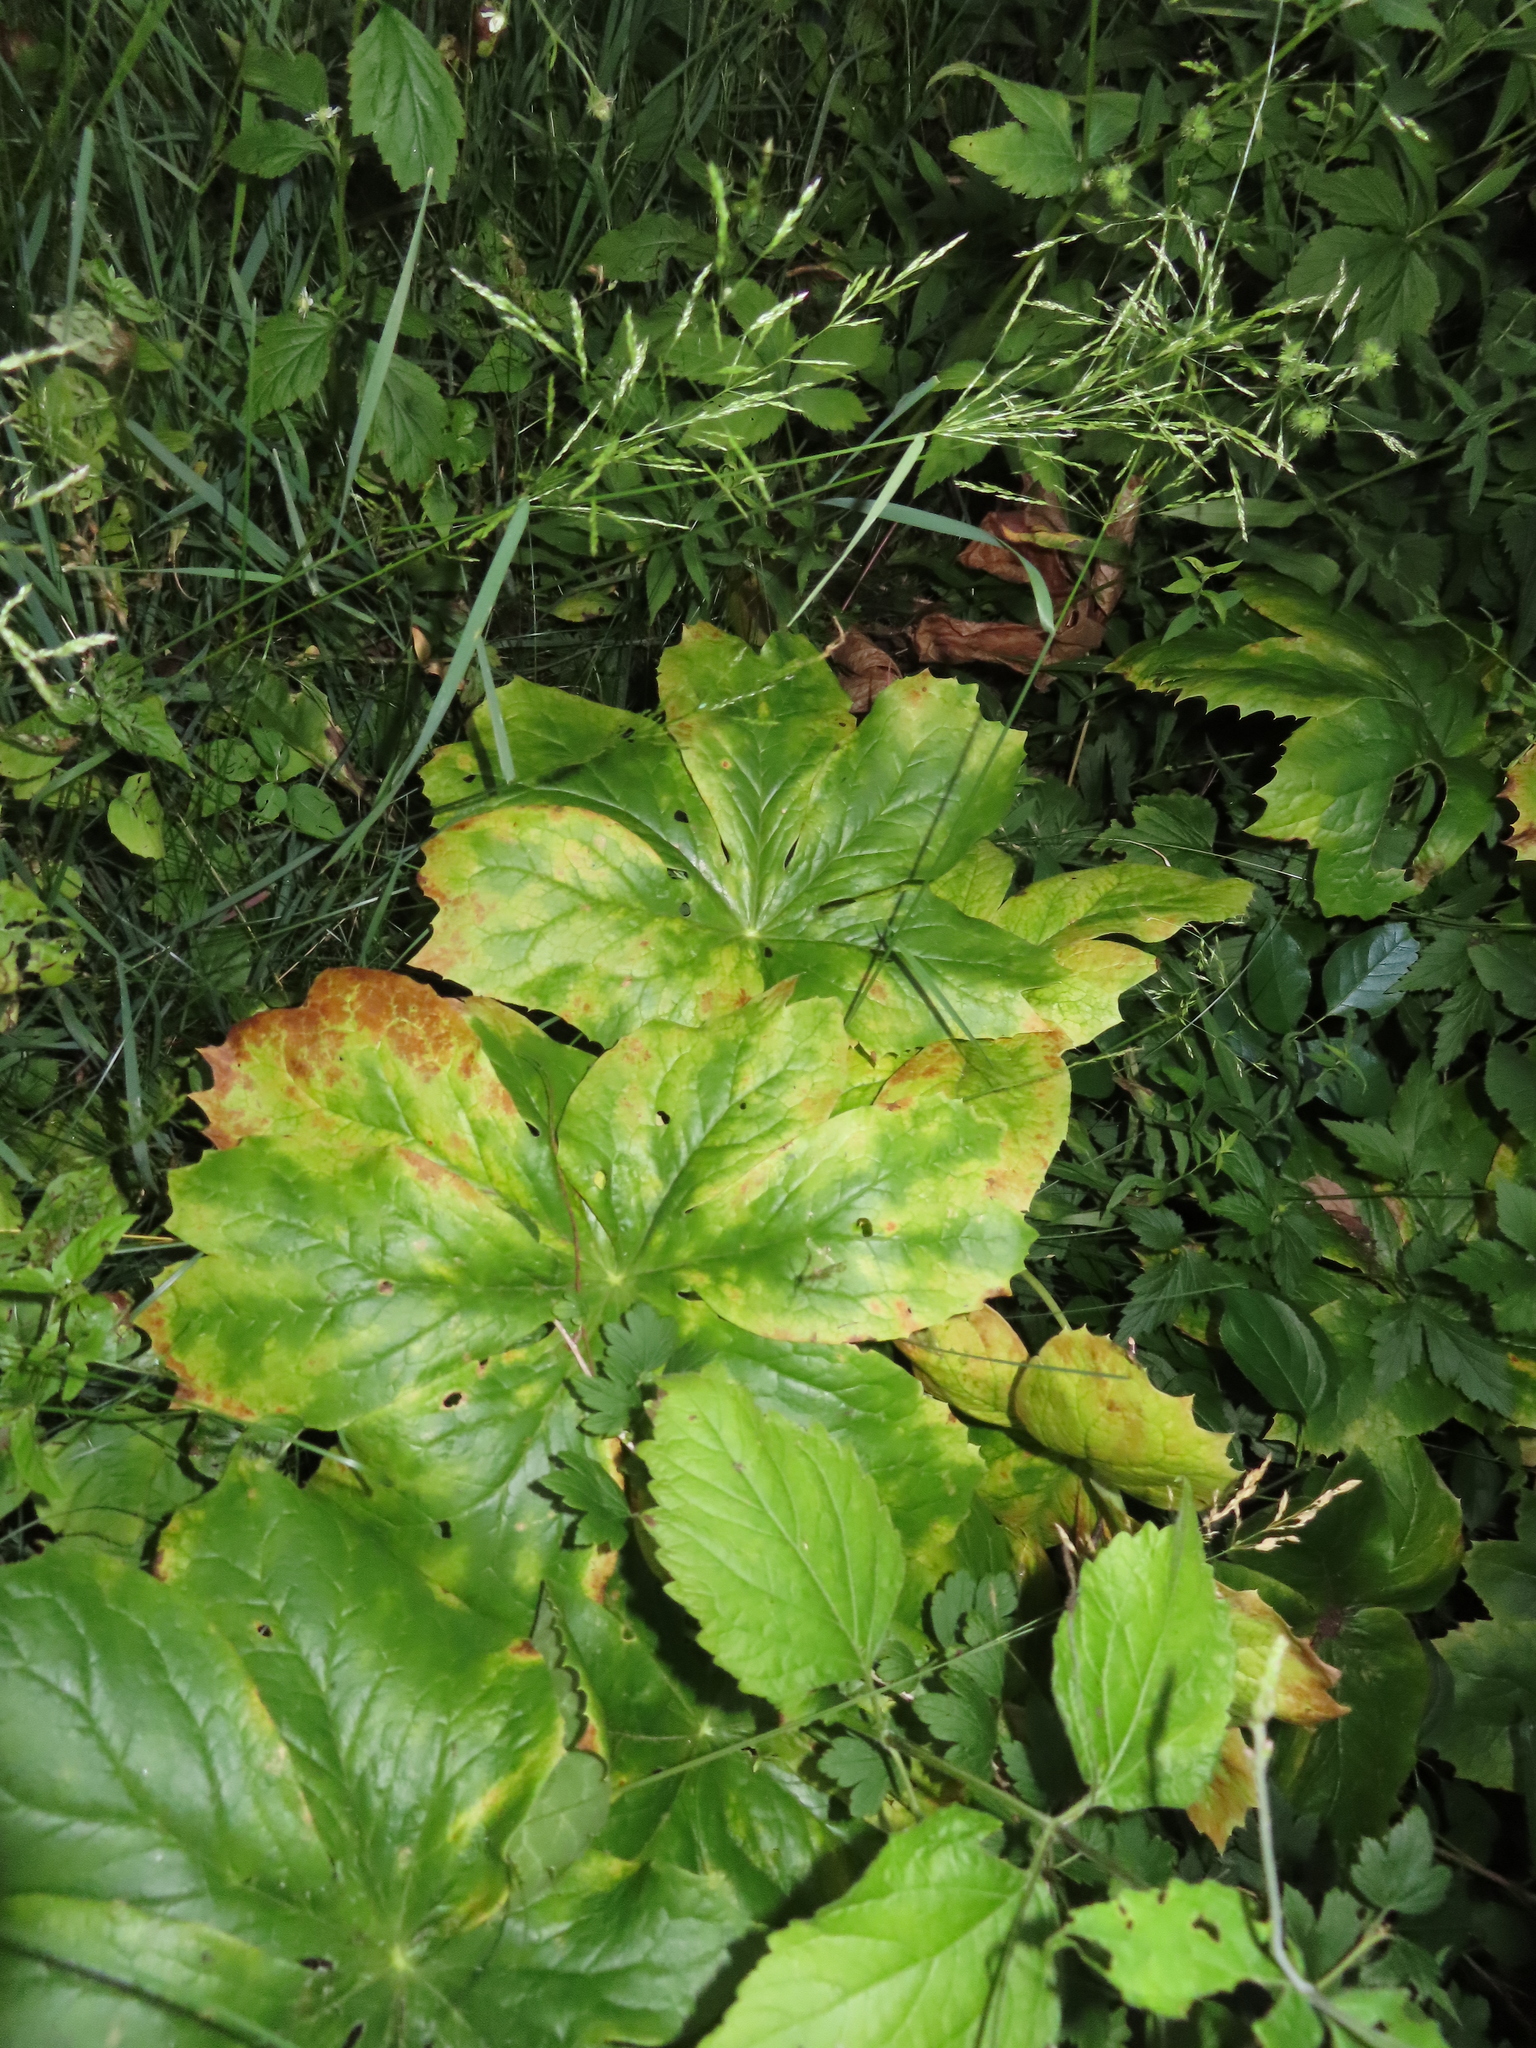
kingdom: Plantae
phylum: Tracheophyta
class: Magnoliopsida
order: Ranunculales
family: Berberidaceae
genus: Podophyllum
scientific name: Podophyllum peltatum
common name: Wild mandrake
